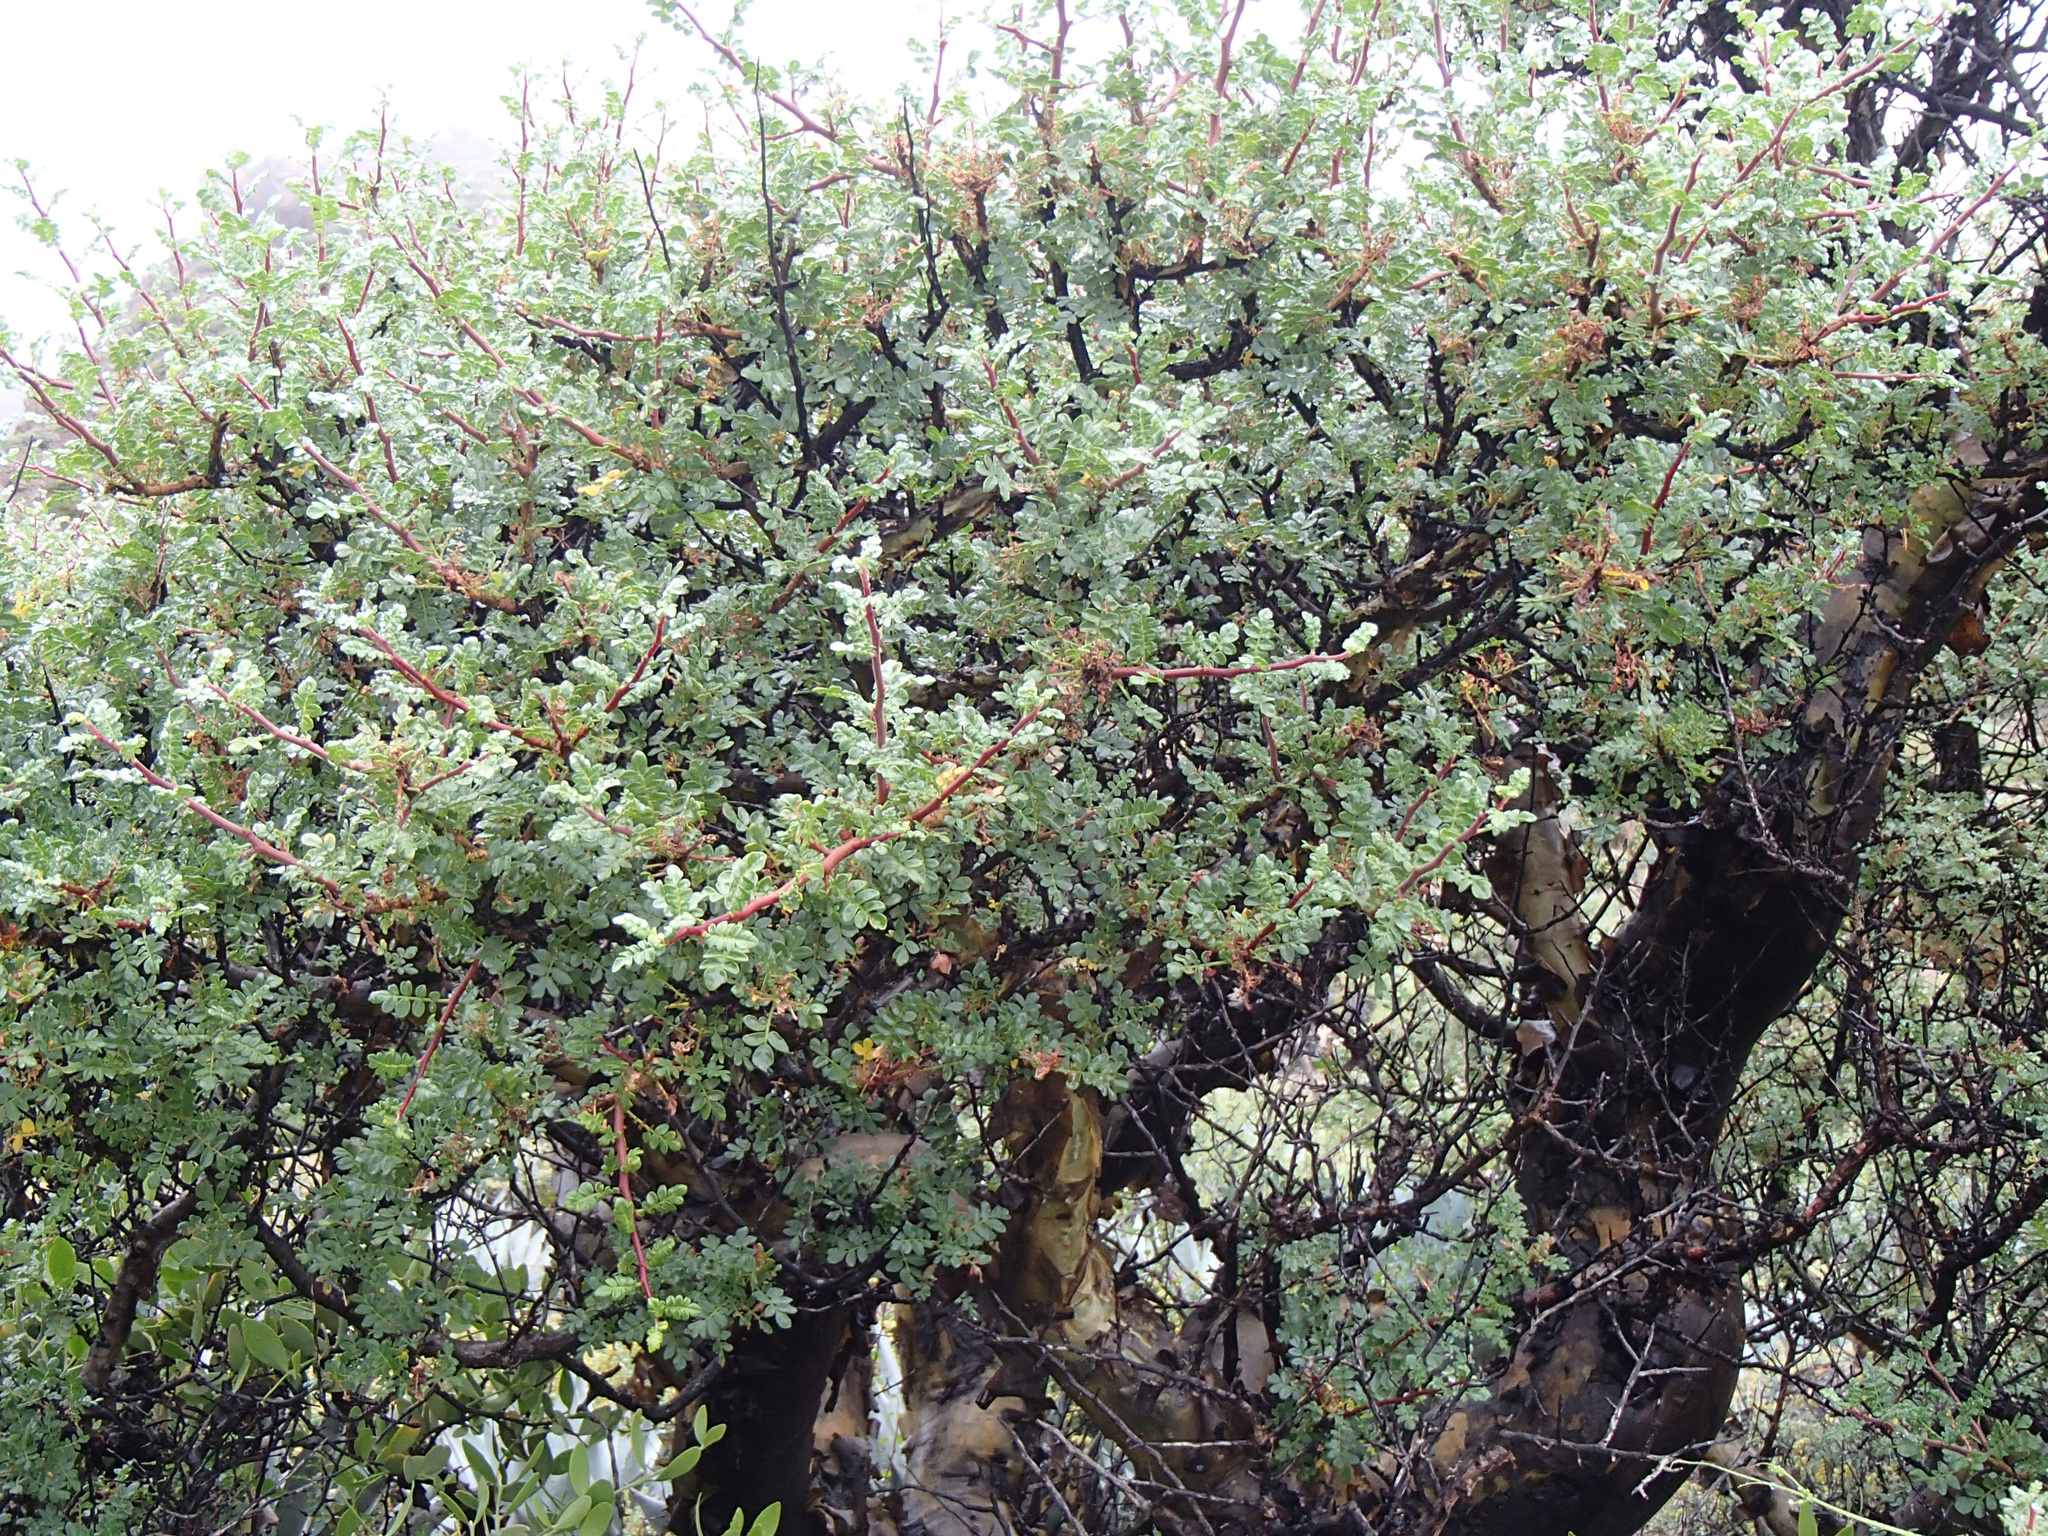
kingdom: Plantae
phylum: Tracheophyta
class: Magnoliopsida
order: Sapindales
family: Anacardiaceae
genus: Pachycormus
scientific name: Pachycormus discolor
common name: Succulent elephant trees
